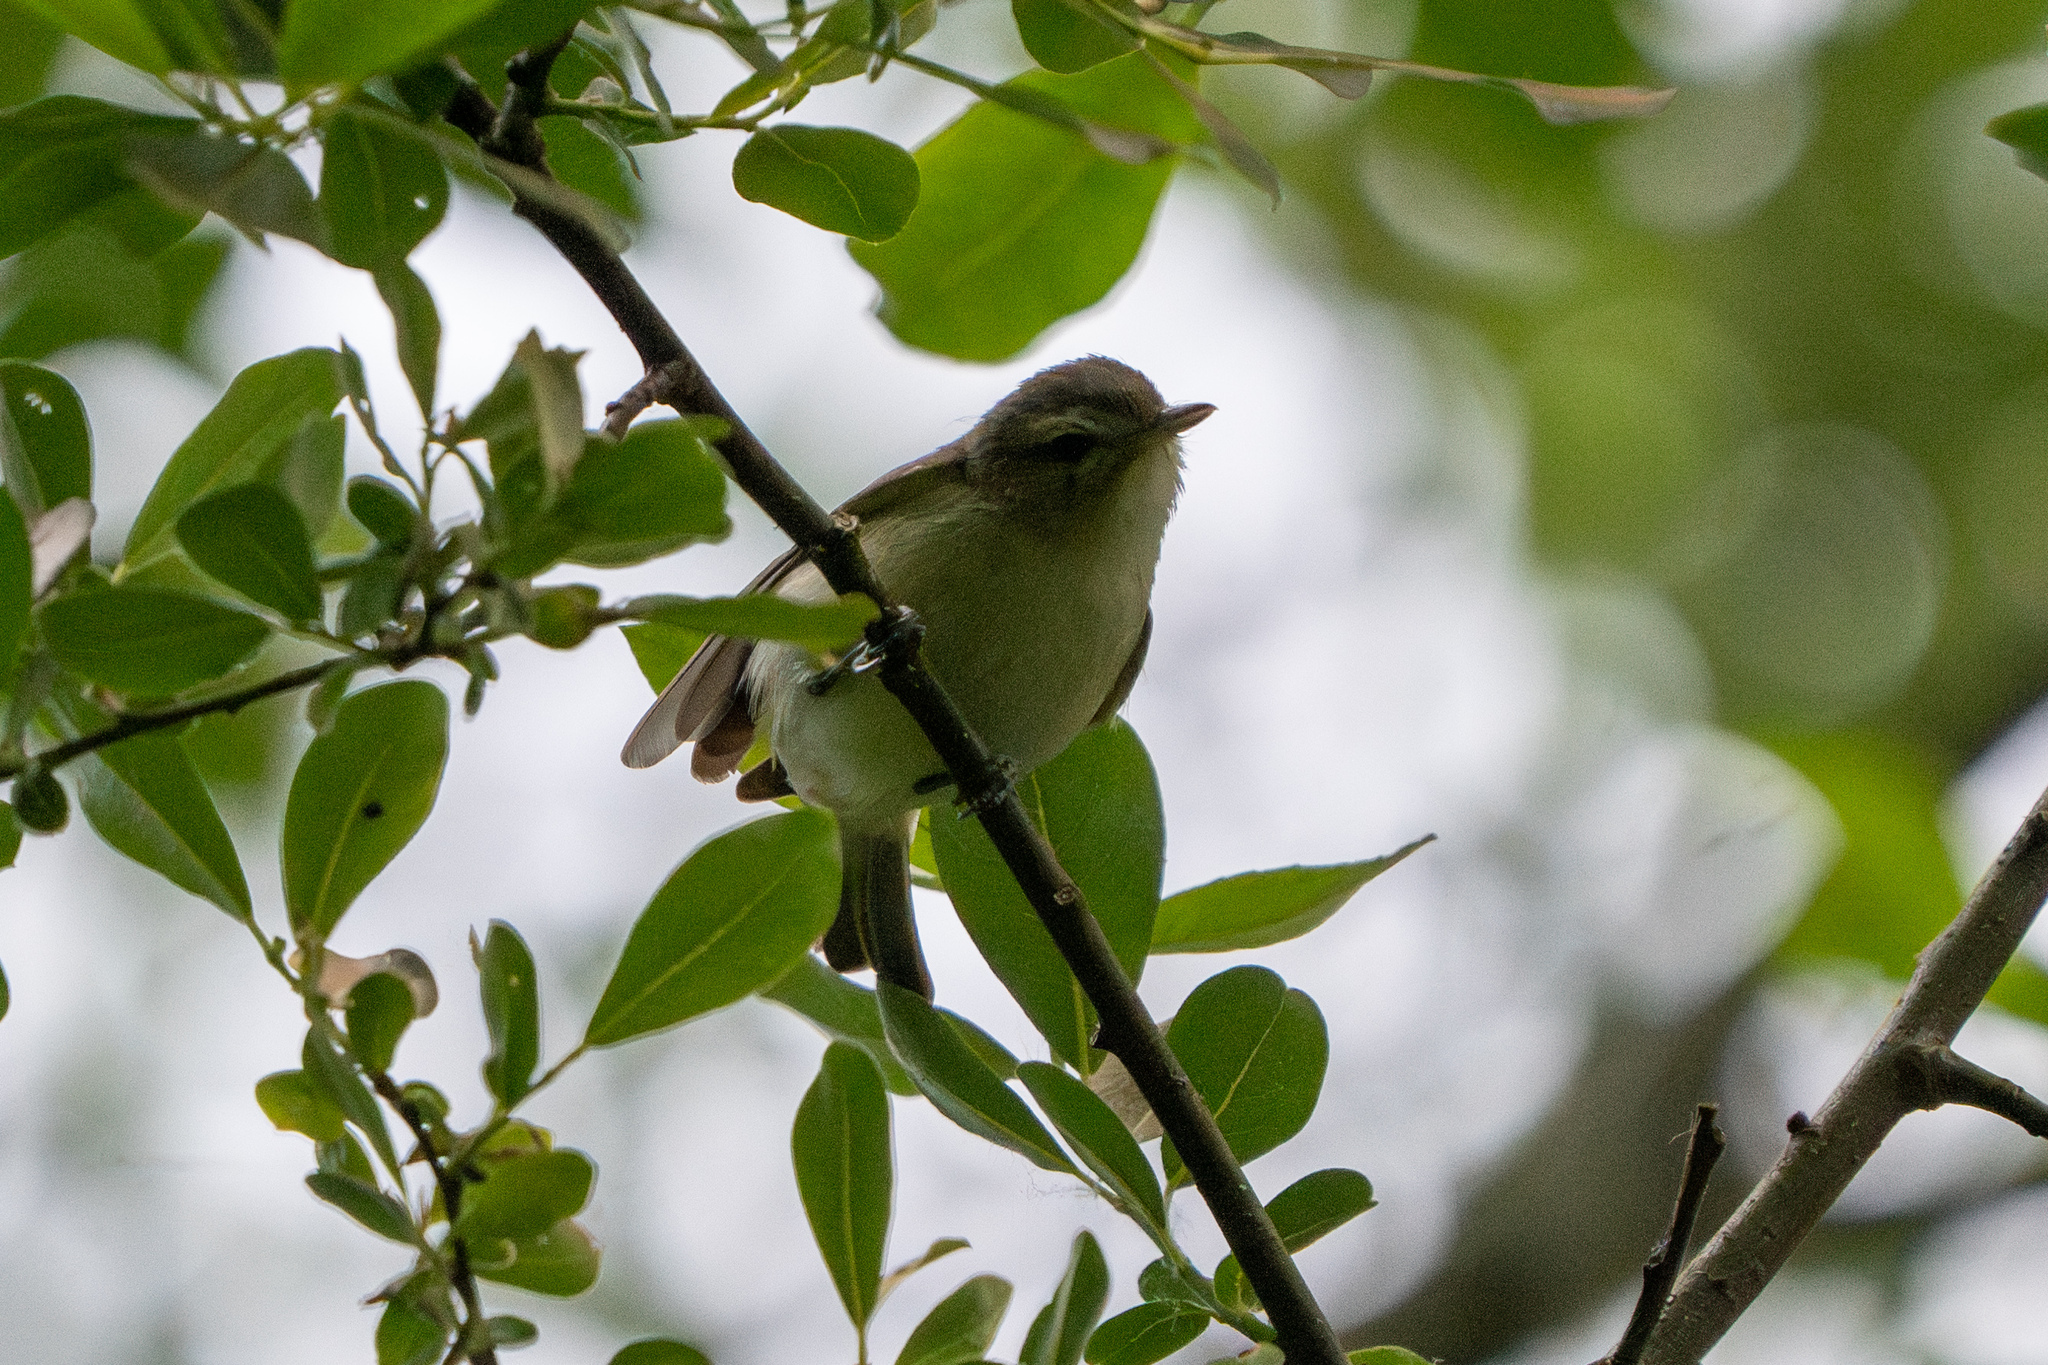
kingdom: Animalia
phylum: Chordata
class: Aves
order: Passeriformes
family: Vireonidae
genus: Vireo
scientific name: Vireo gilvus
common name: Warbling vireo
